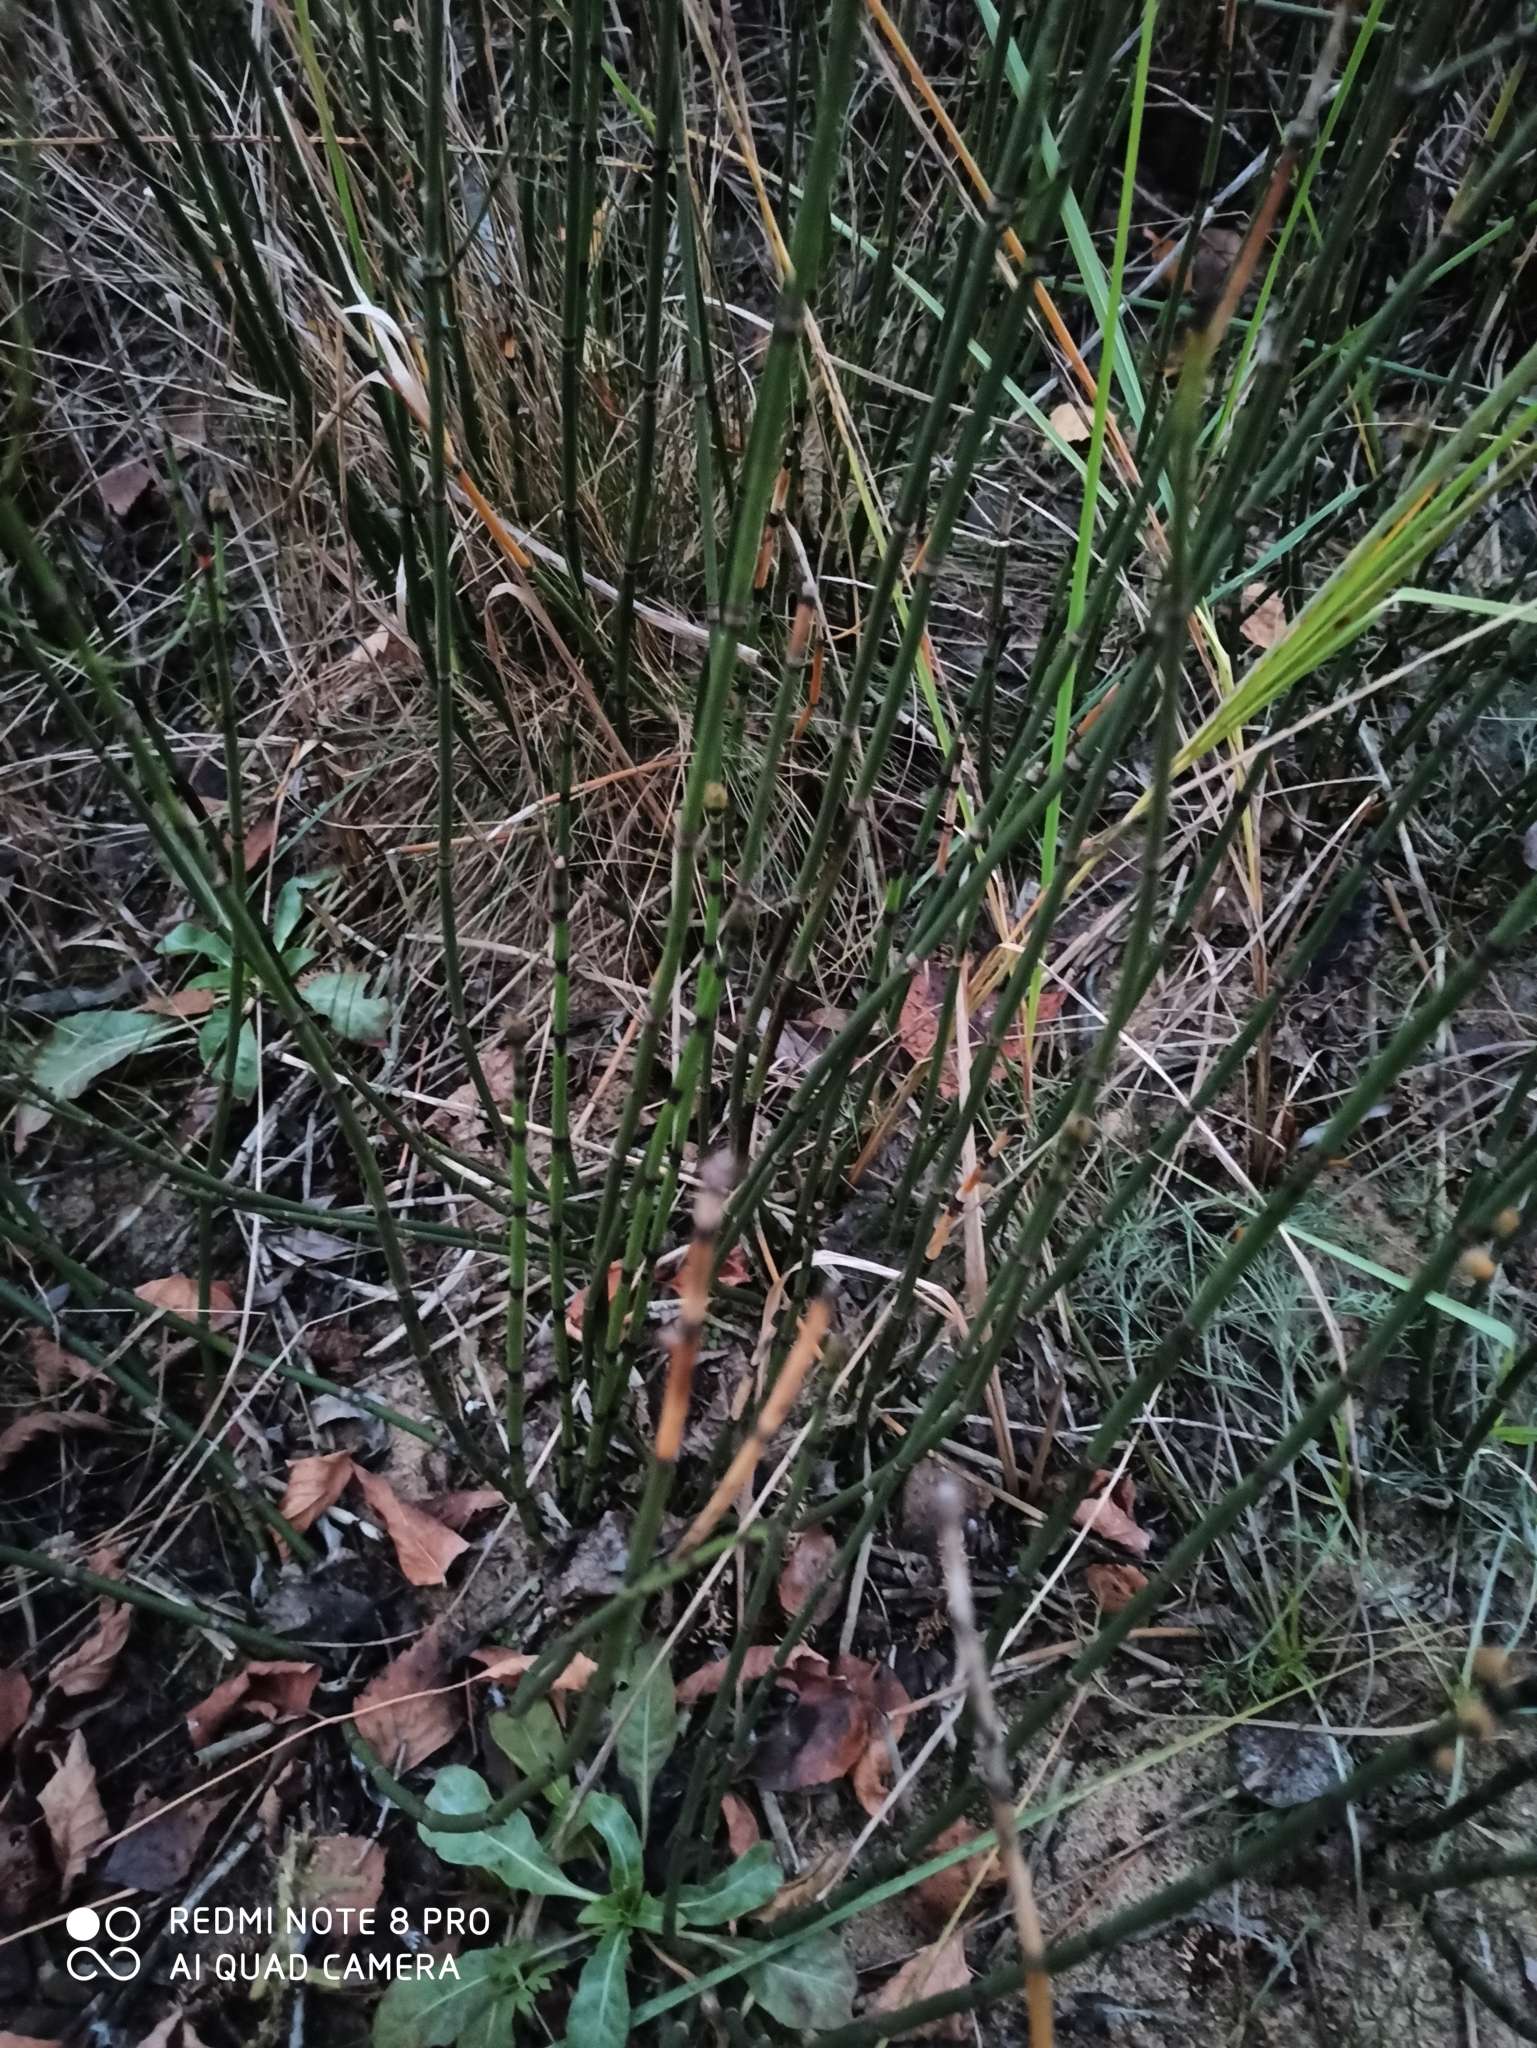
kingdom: Plantae
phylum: Tracheophyta
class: Polypodiopsida
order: Equisetales
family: Equisetaceae
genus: Equisetum
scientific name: Equisetum hyemale
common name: Rough horsetail
